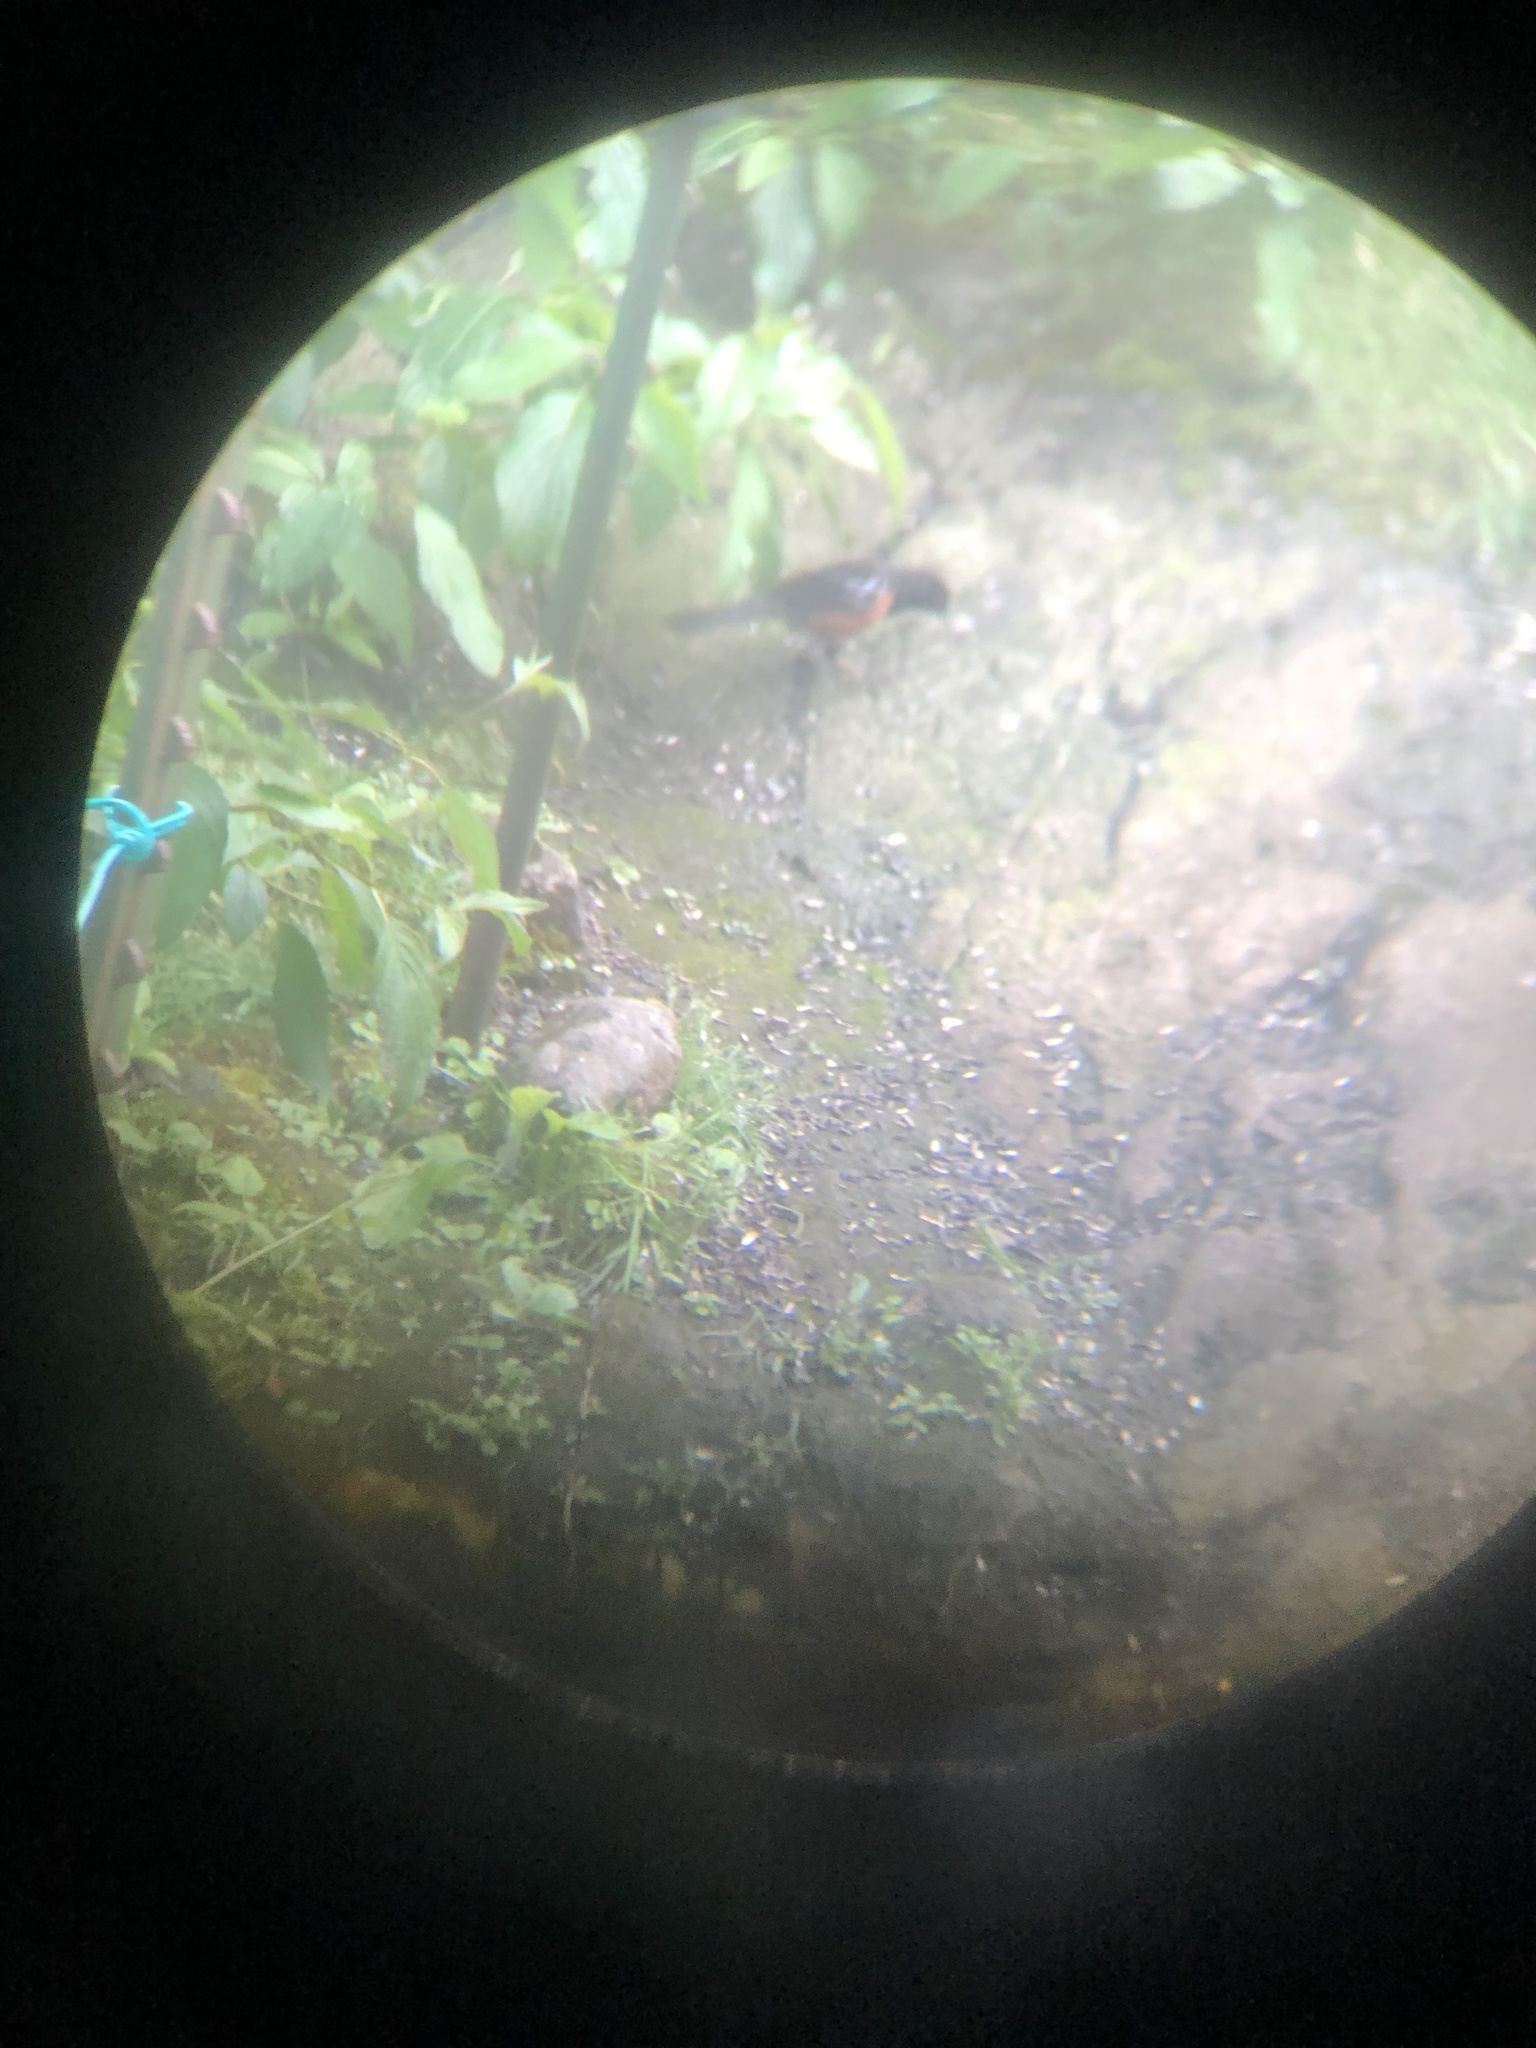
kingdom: Animalia
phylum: Chordata
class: Aves
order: Passeriformes
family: Passerellidae
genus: Pipilo
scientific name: Pipilo maculatus
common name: Spotted towhee
